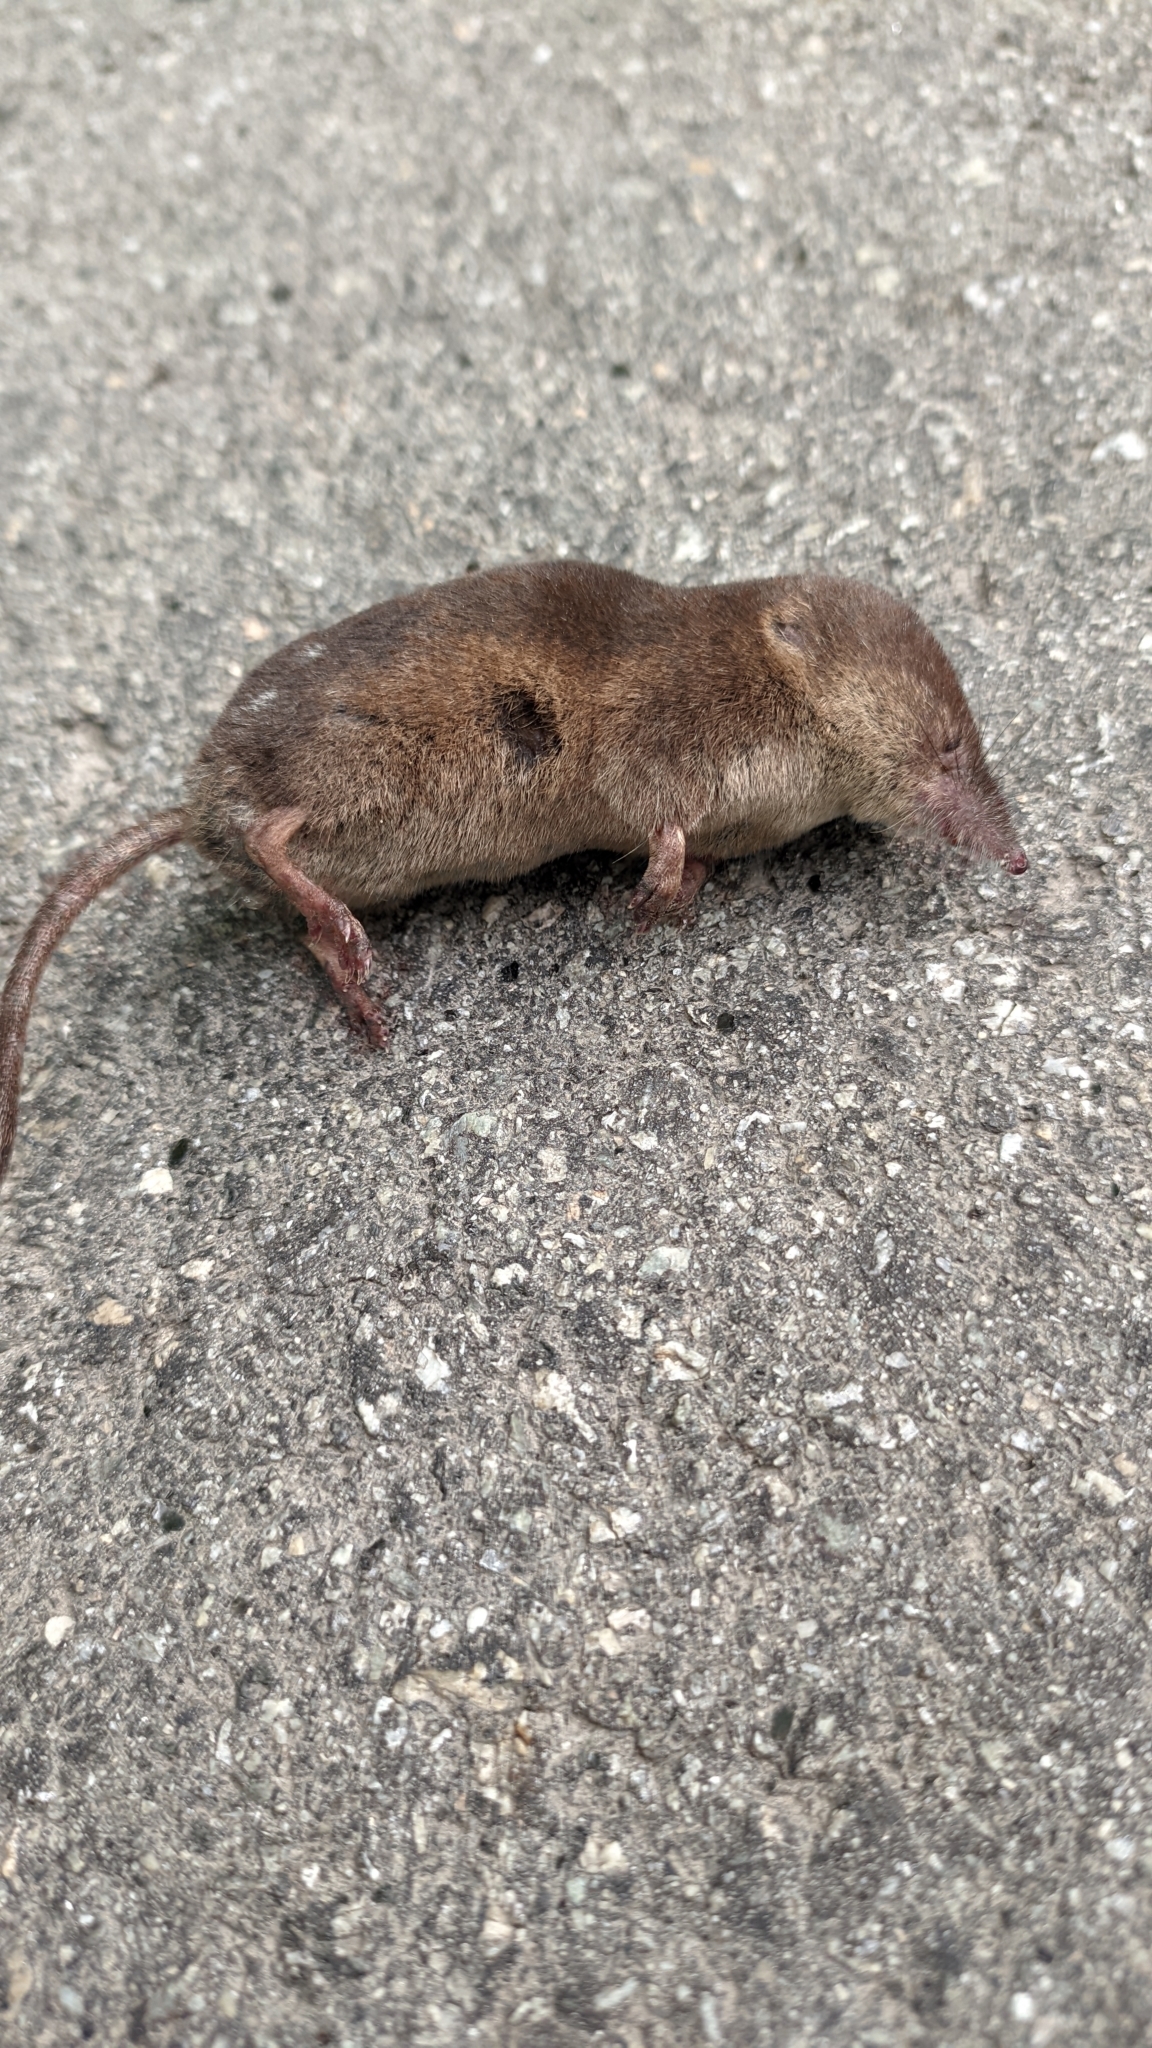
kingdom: Animalia
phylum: Chordata
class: Mammalia
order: Soricomorpha
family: Soricidae
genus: Sorex
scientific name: Sorex araneus
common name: Common shrew
